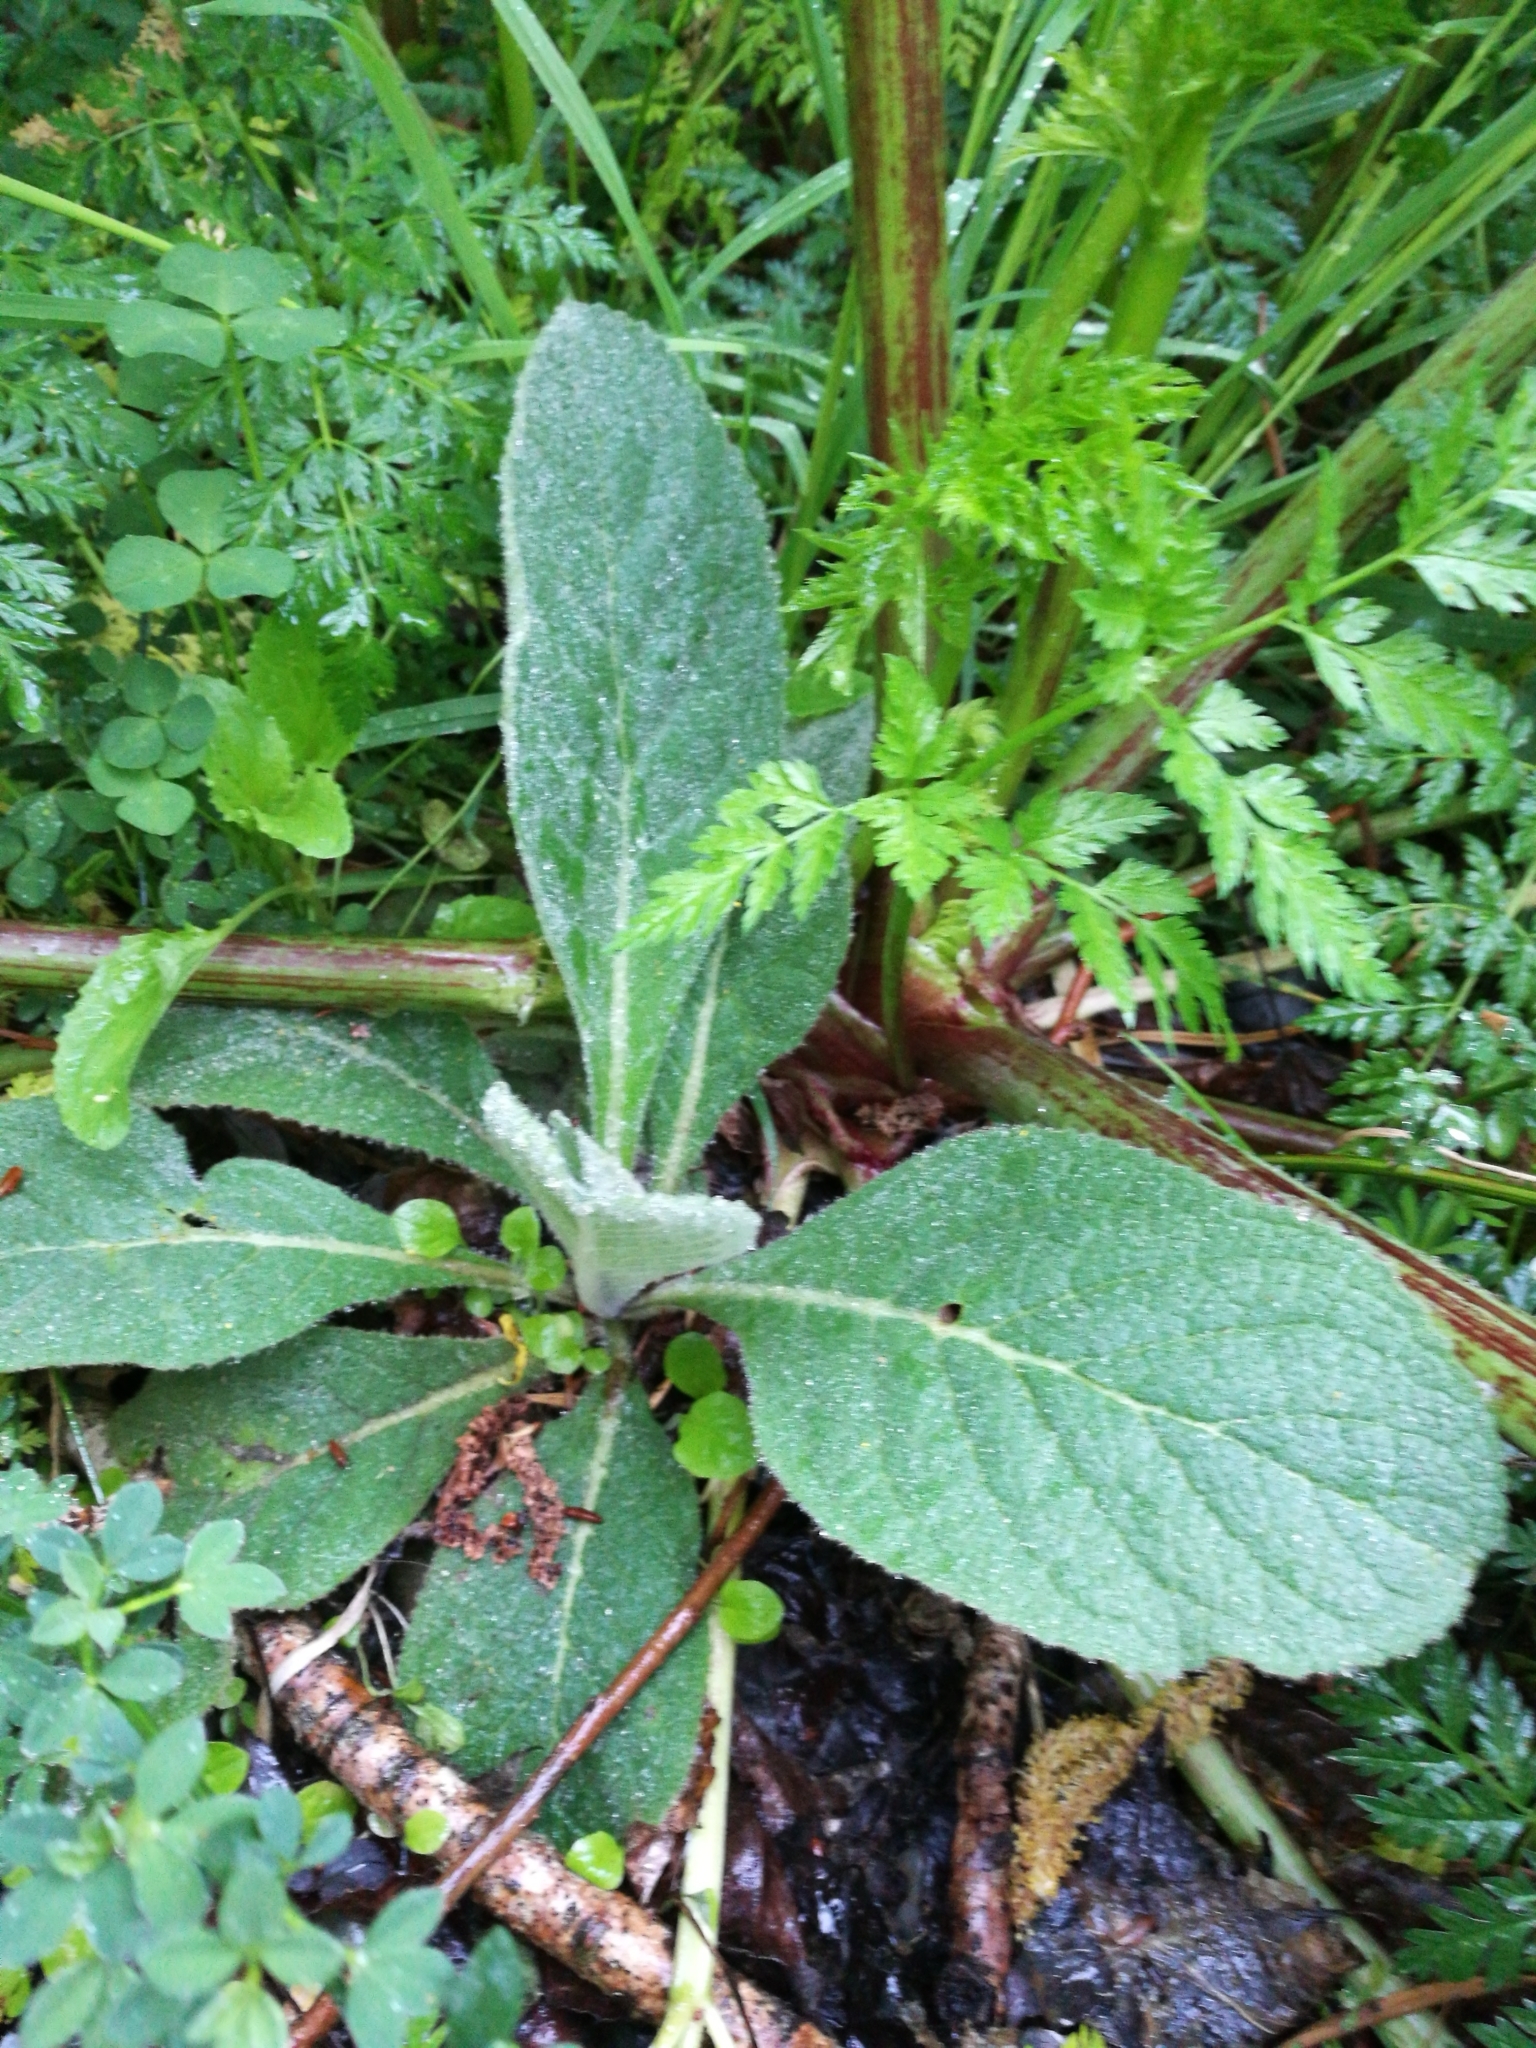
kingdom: Plantae
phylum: Tracheophyta
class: Magnoliopsida
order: Lamiales
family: Plantaginaceae
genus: Digitalis
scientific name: Digitalis purpurea
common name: Foxglove
